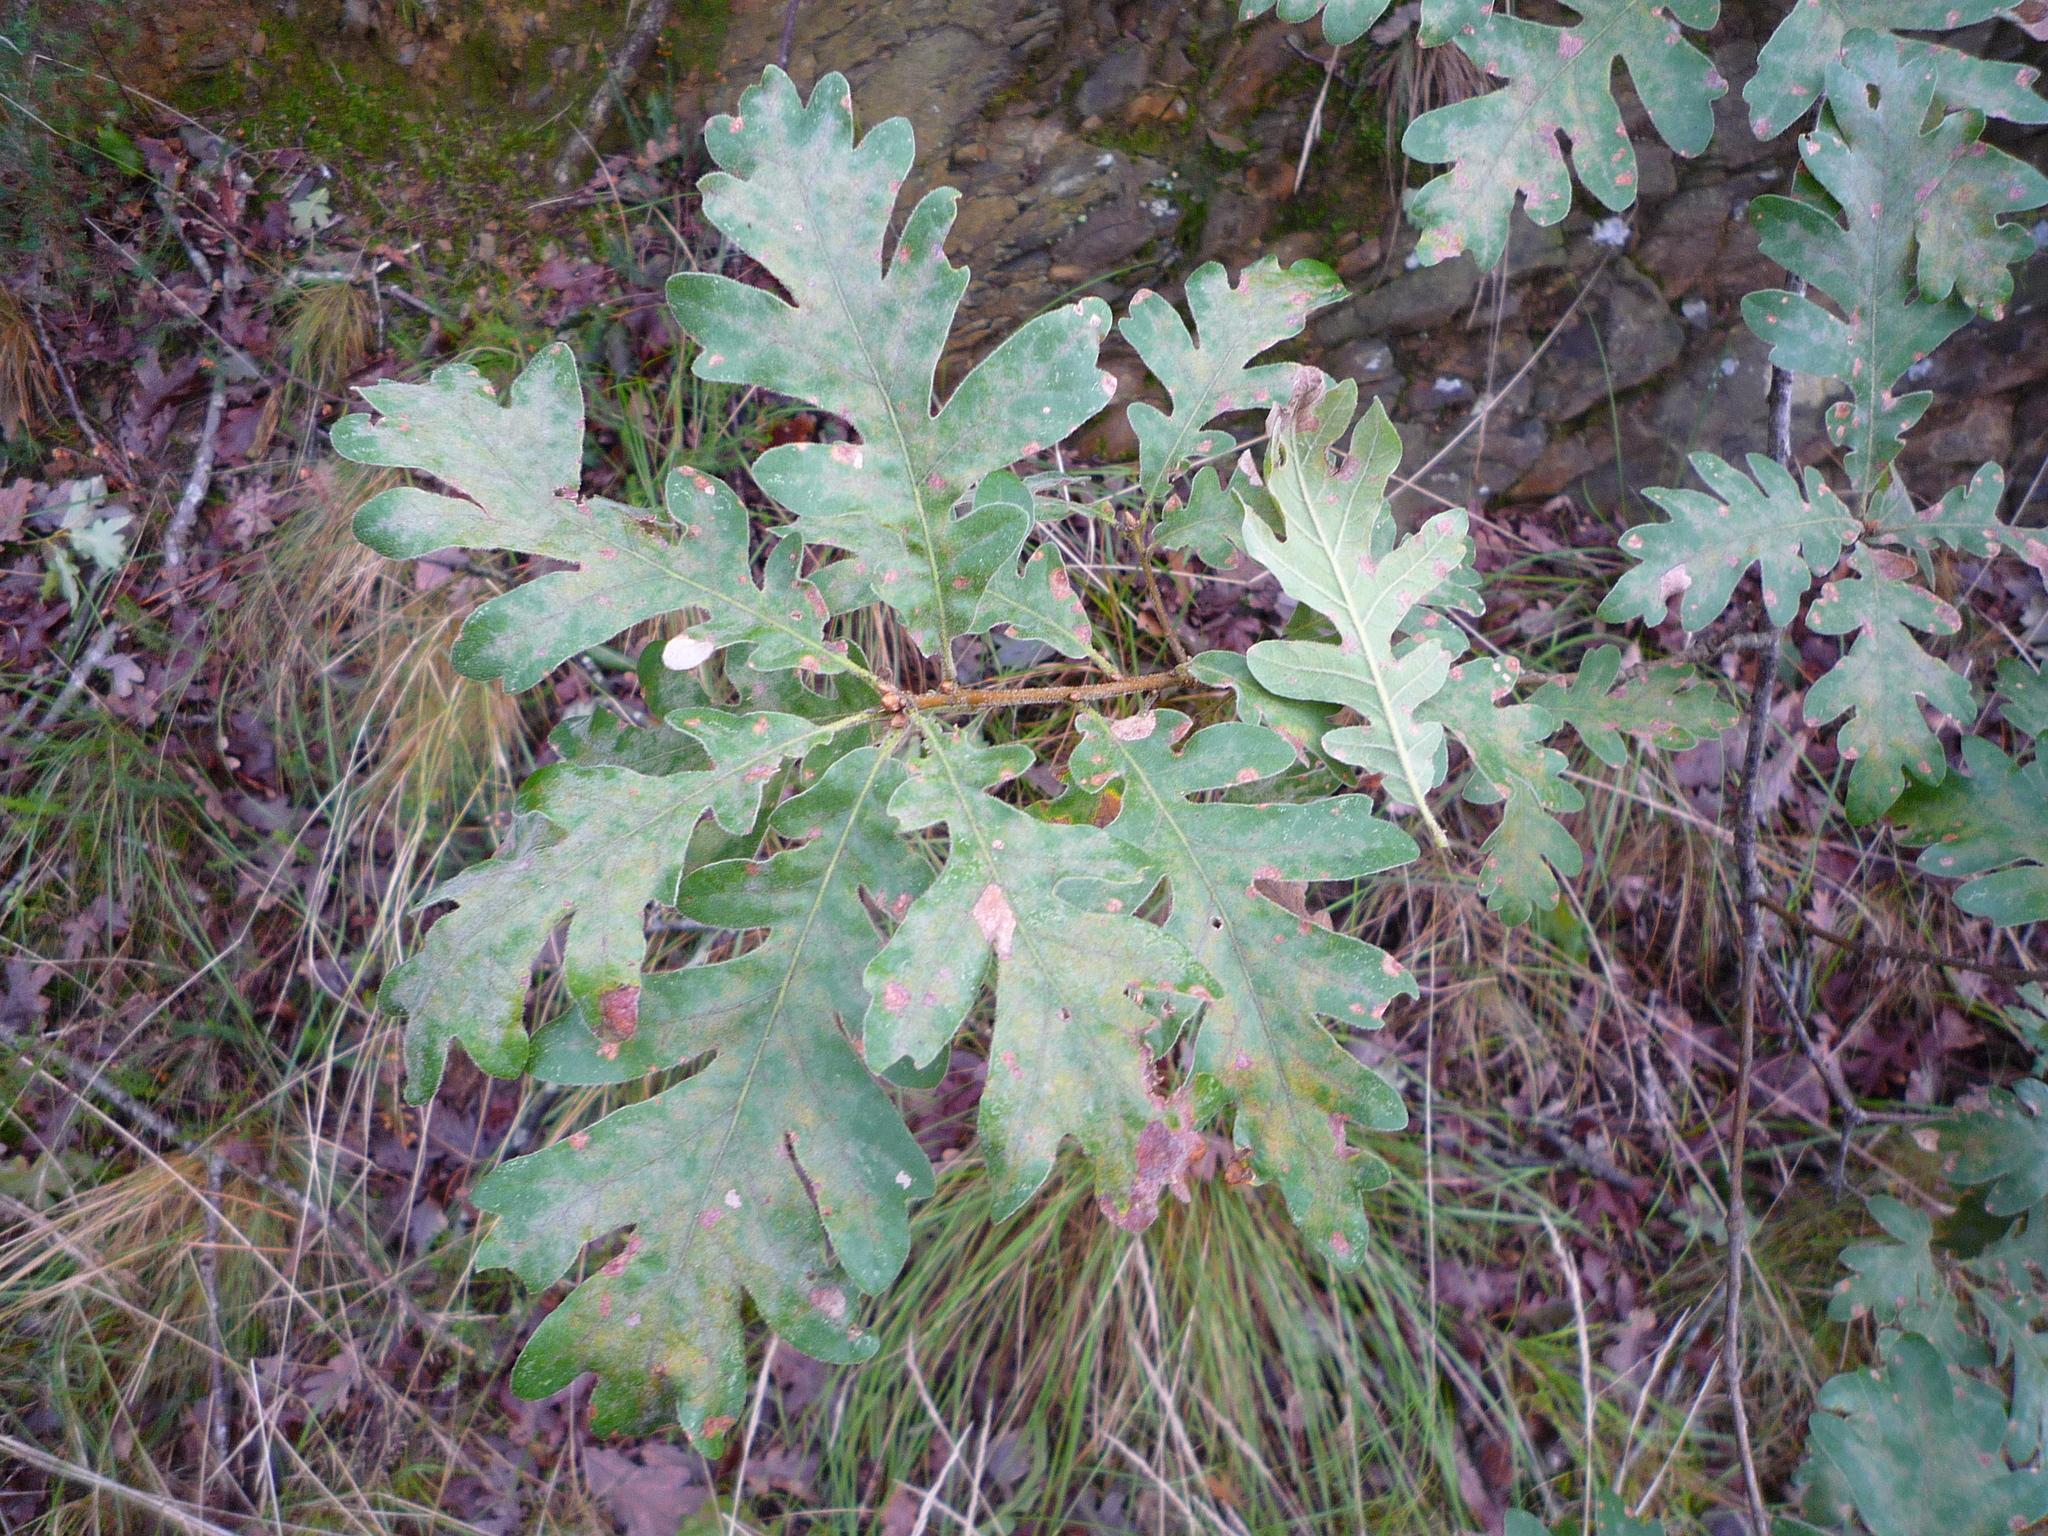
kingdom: Plantae
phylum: Tracheophyta
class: Magnoliopsida
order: Fagales
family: Fagaceae
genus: Quercus
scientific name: Quercus pyrenaica
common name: Pyrenean oak
